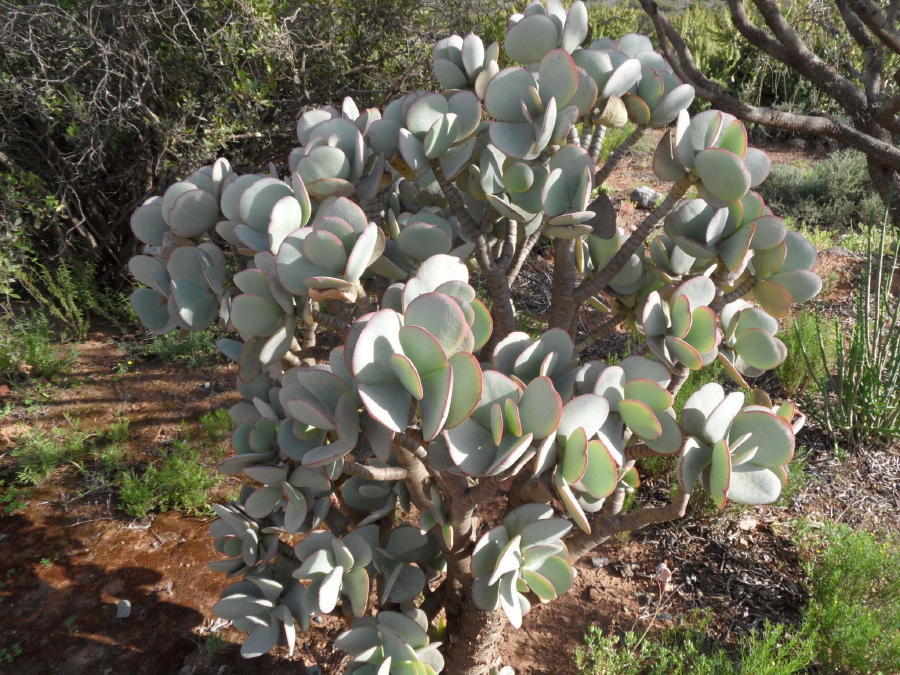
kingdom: Plantae
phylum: Tracheophyta
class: Magnoliopsida
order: Saxifragales
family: Crassulaceae
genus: Crassula
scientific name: Crassula arborescens
